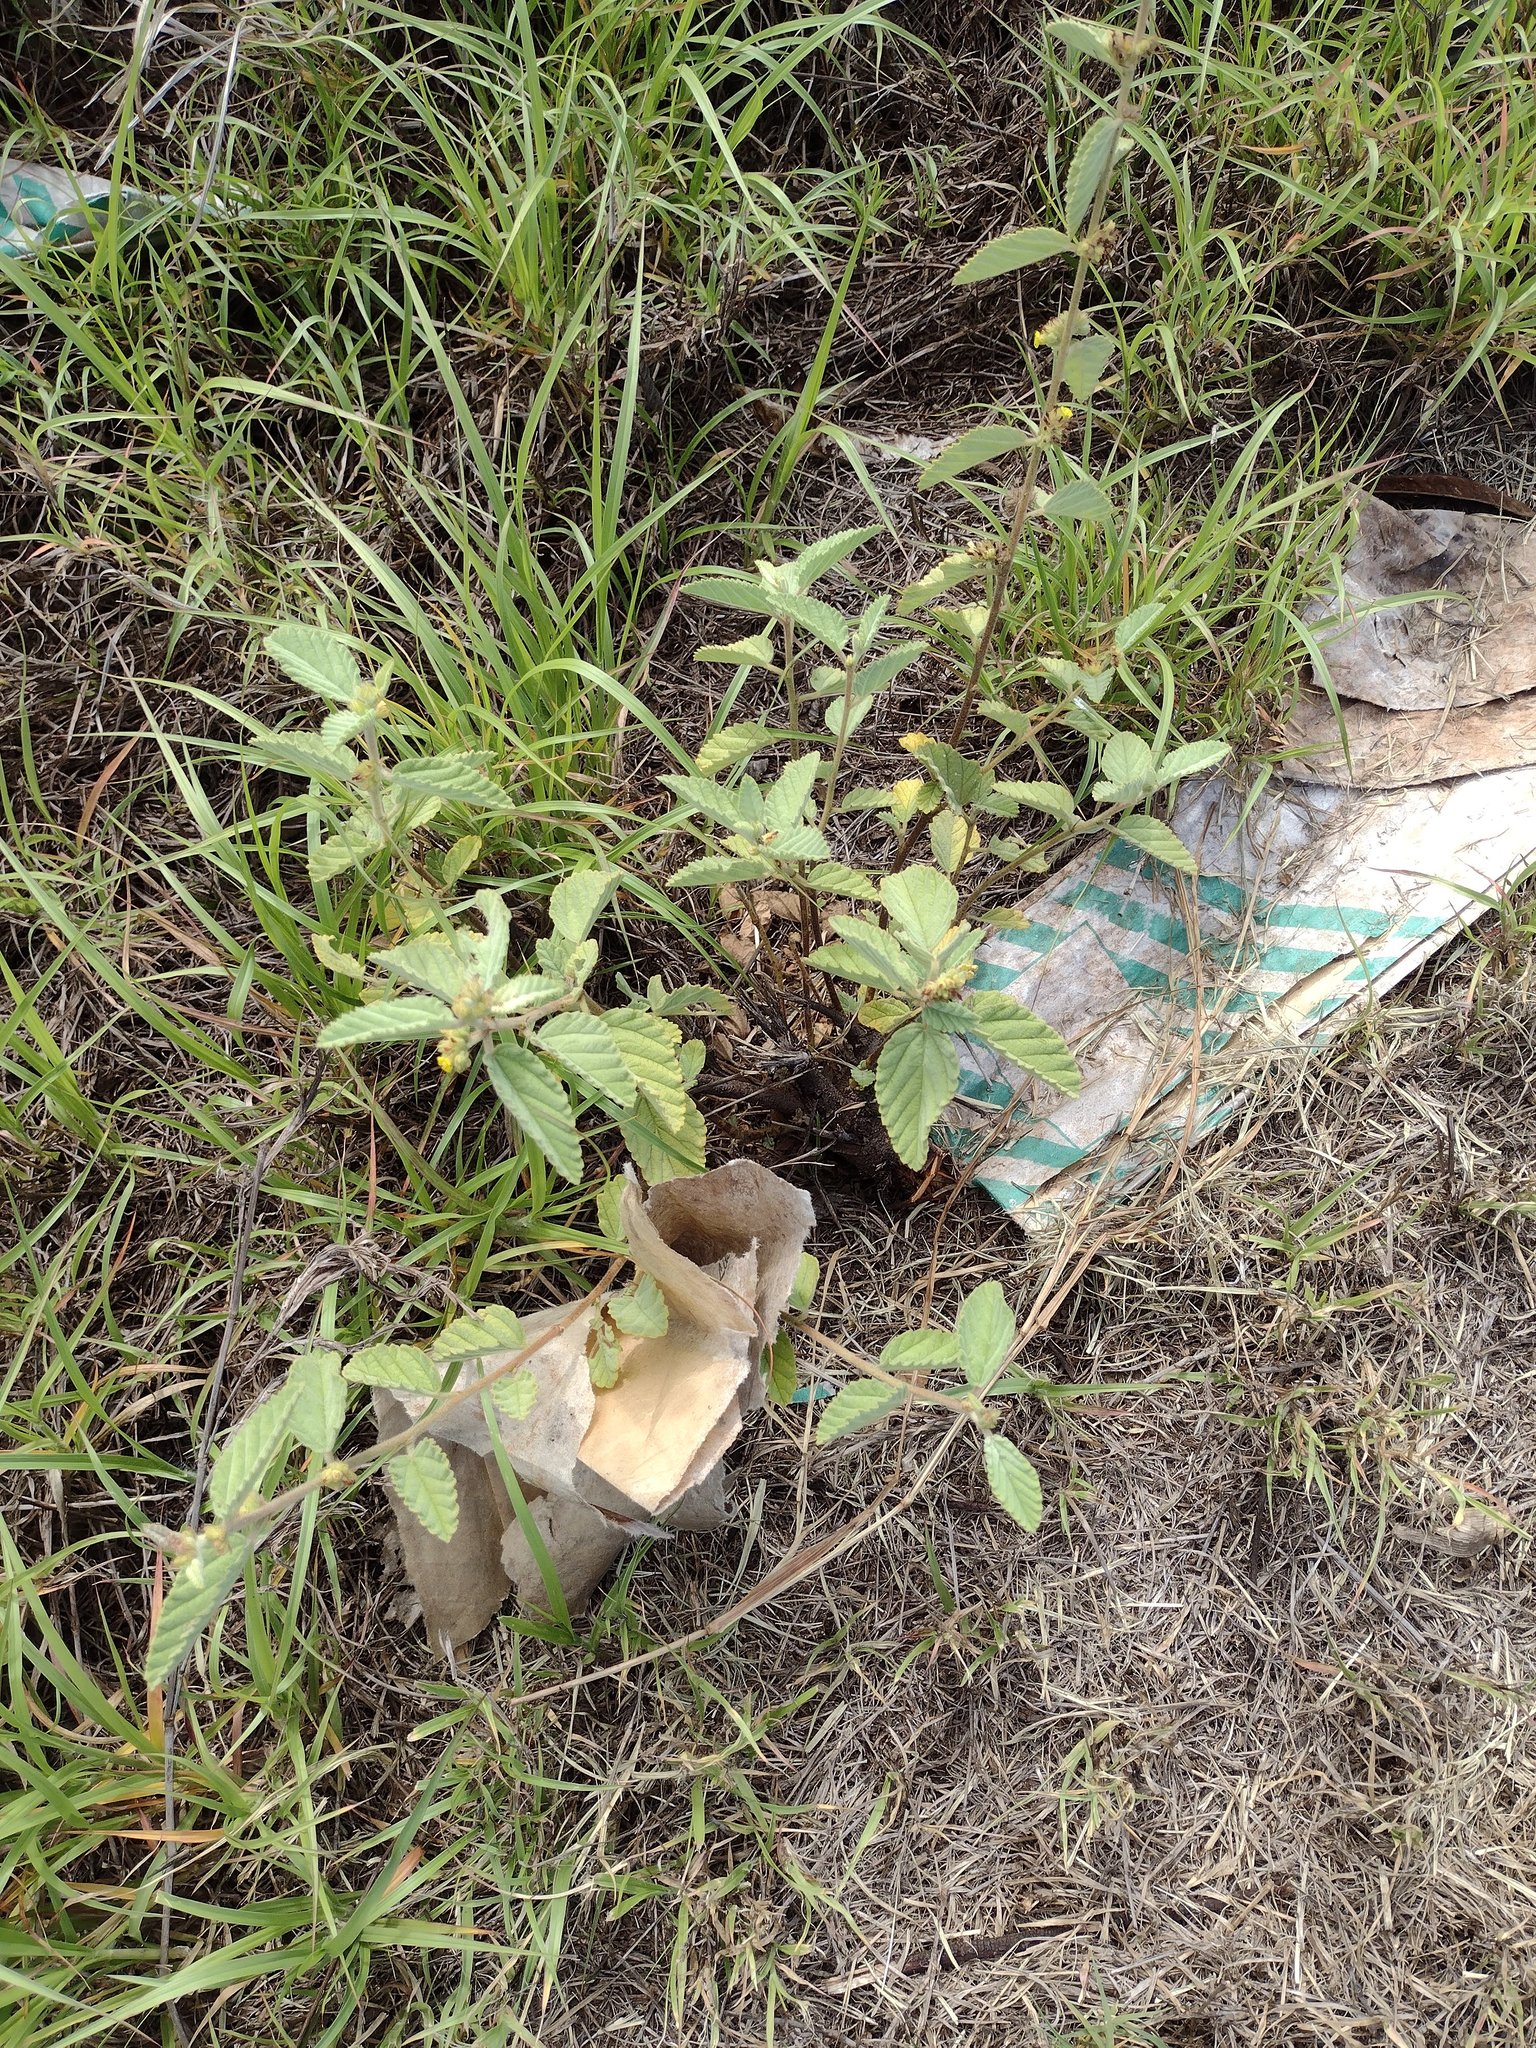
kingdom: Plantae
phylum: Tracheophyta
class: Magnoliopsida
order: Malvales
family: Malvaceae
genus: Waltheria
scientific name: Waltheria indica
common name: Leather-coat
